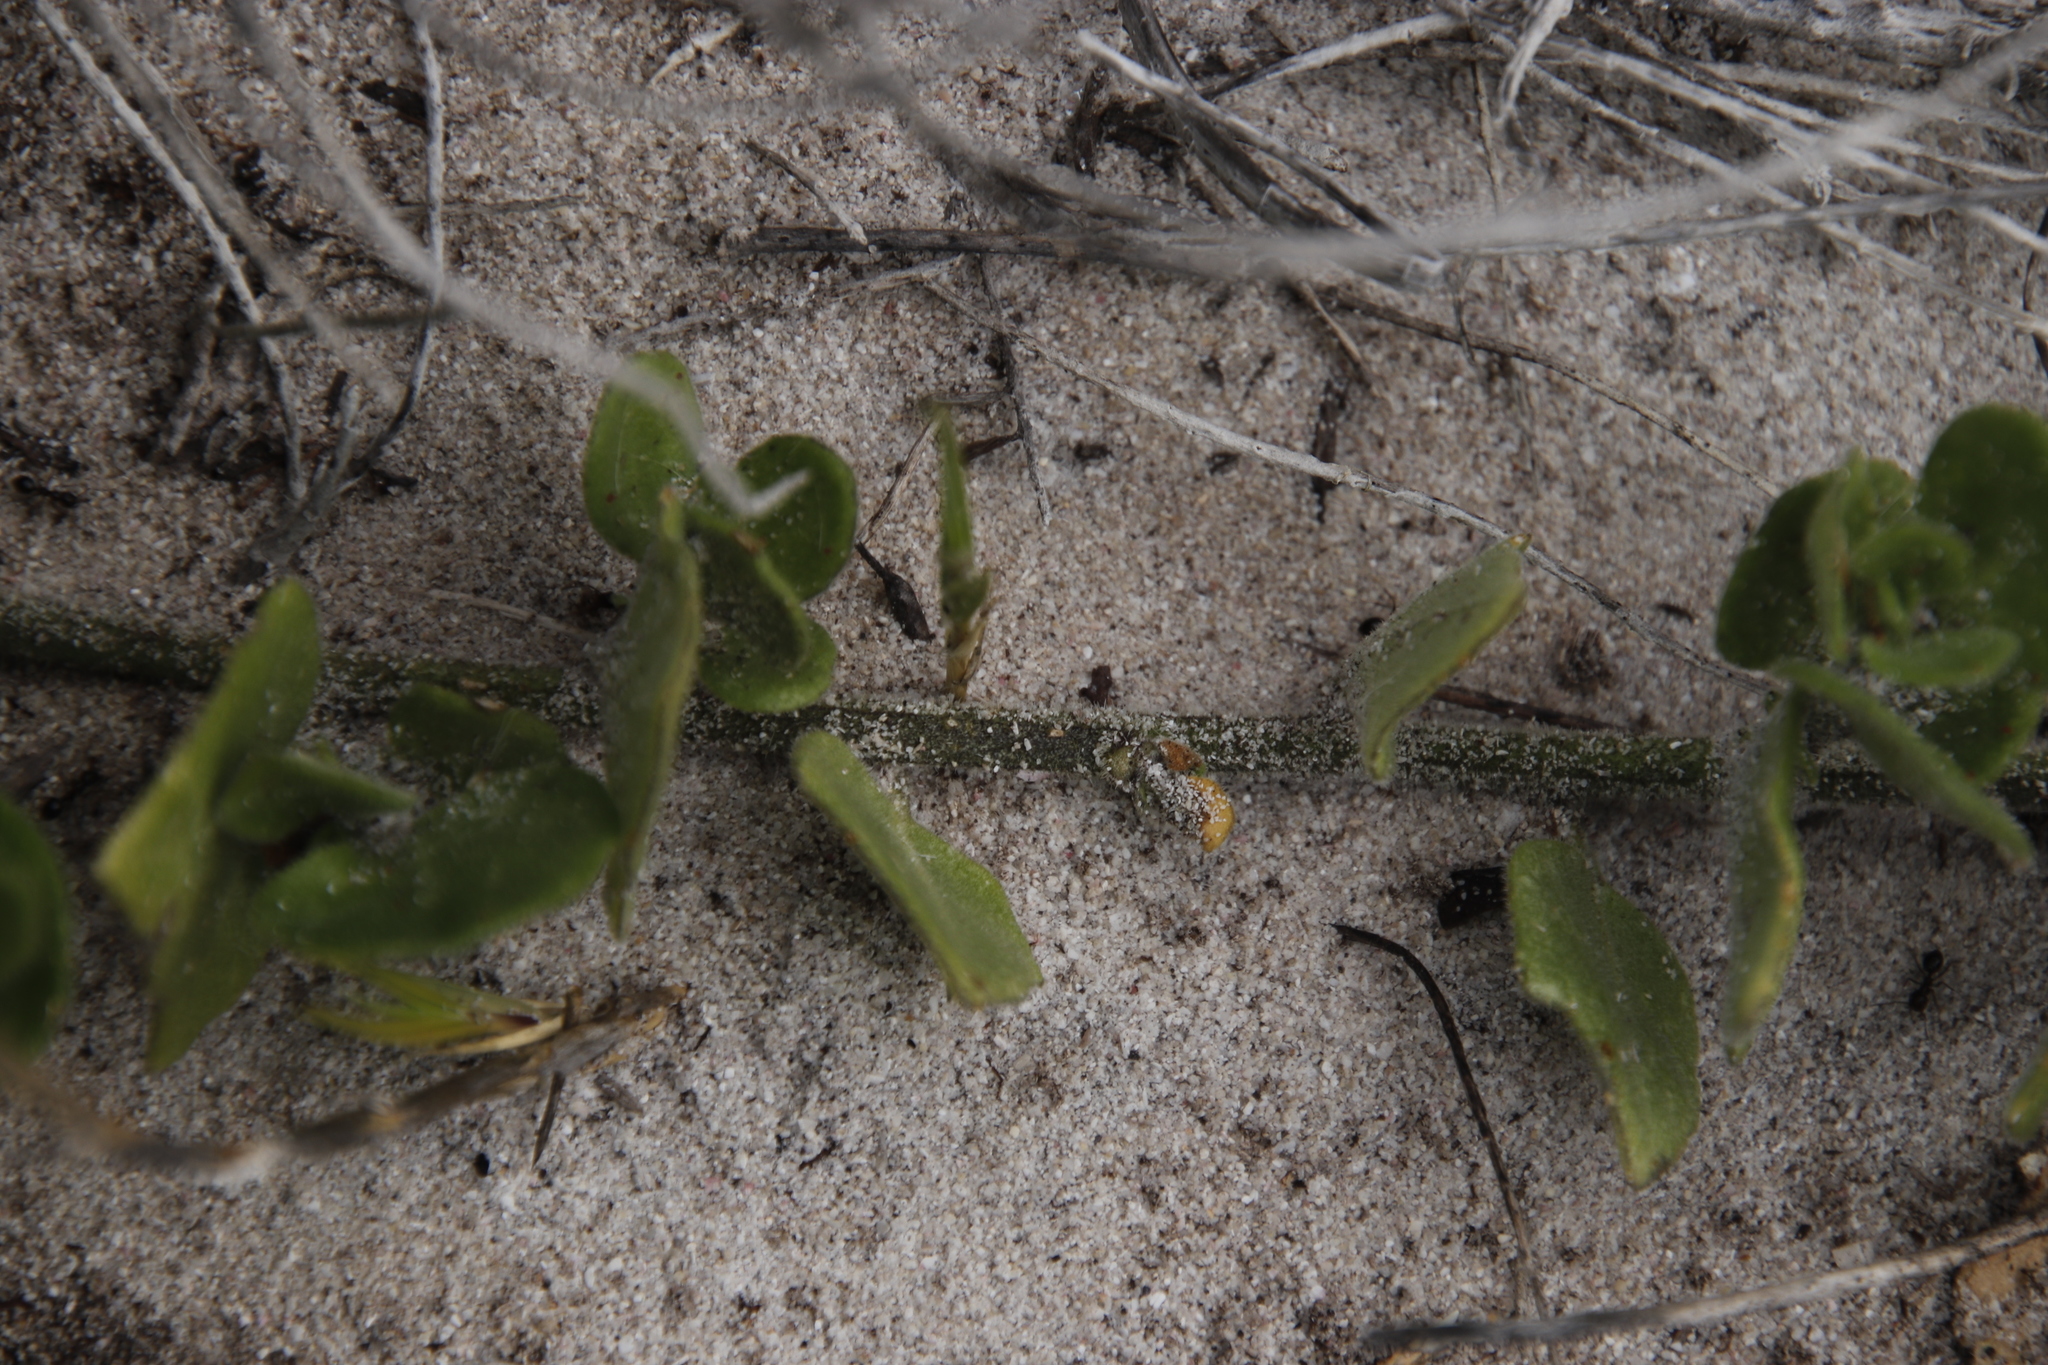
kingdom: Animalia
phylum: Arthropoda
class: Insecta
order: Hymenoptera
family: Formicidae
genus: Anoplolepis
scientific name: Anoplolepis steingroeveri
